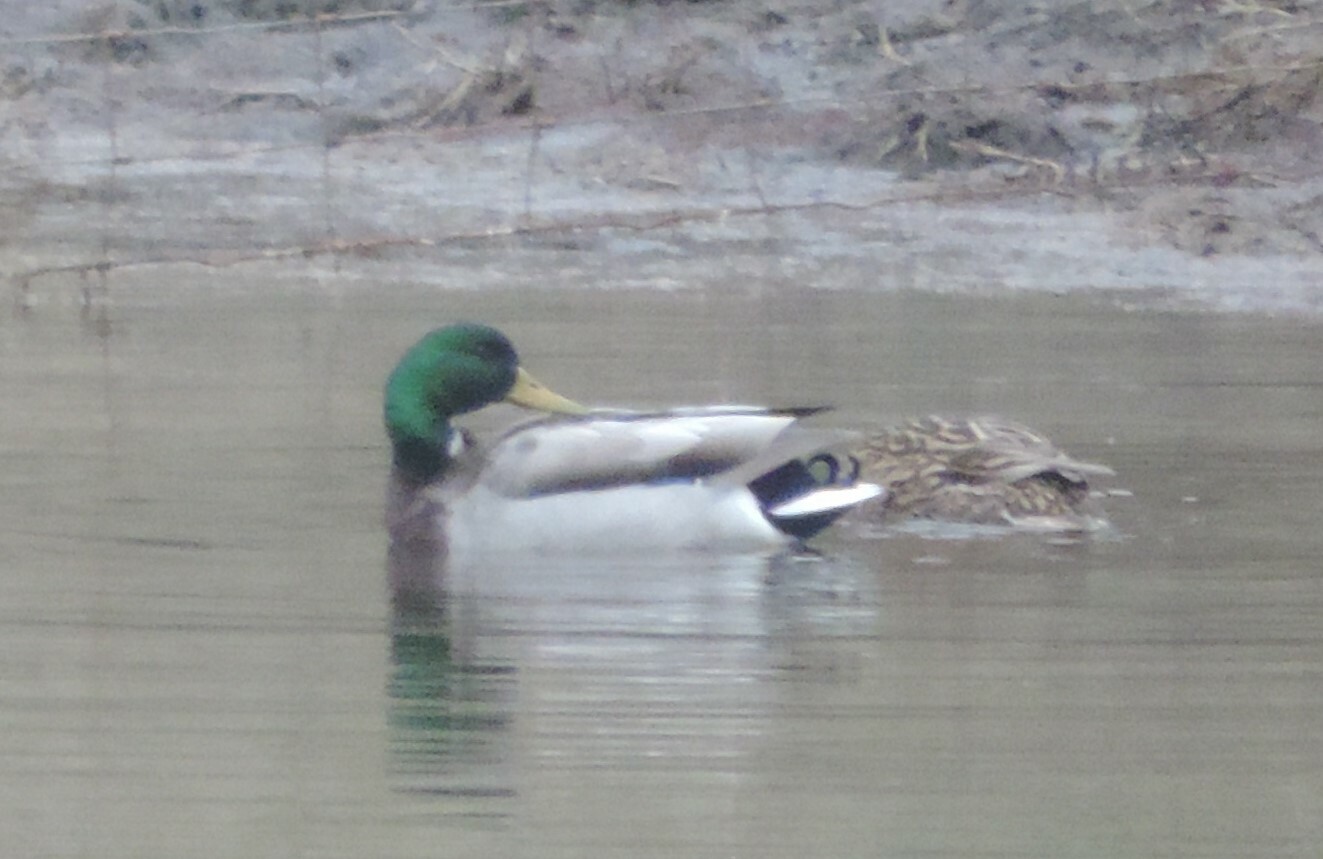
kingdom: Animalia
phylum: Chordata
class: Aves
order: Anseriformes
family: Anatidae
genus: Anas
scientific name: Anas platyrhynchos
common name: Mallard
